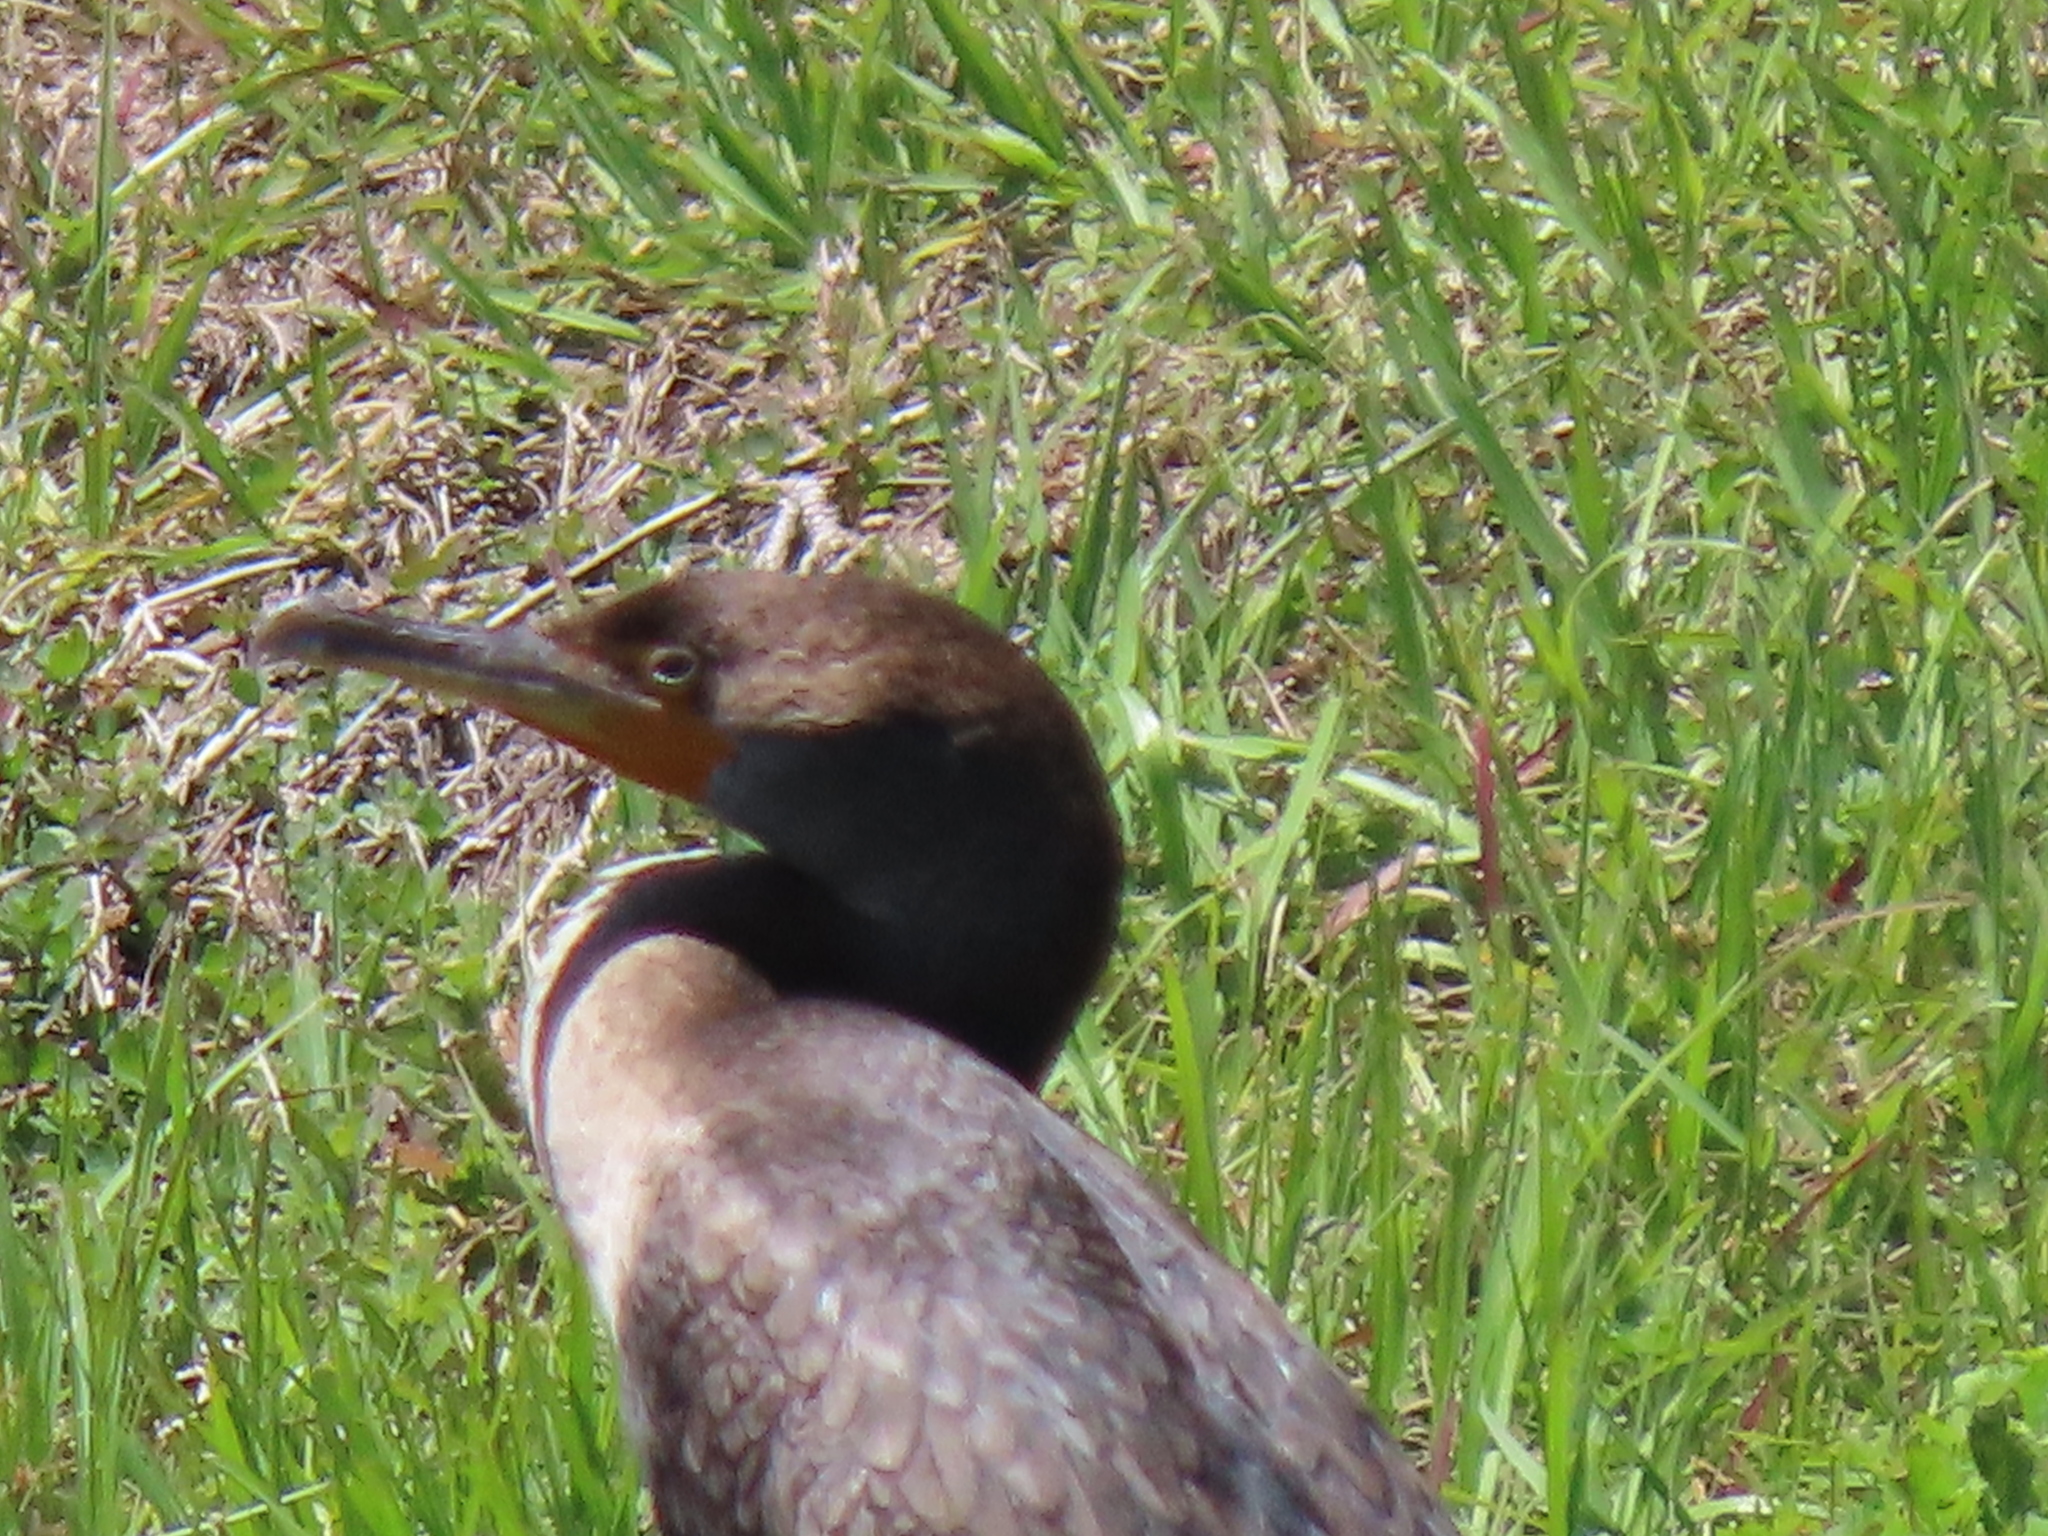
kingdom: Animalia
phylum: Chordata
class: Aves
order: Suliformes
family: Phalacrocoracidae
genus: Phalacrocorax
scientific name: Phalacrocorax auritus
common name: Double-crested cormorant
